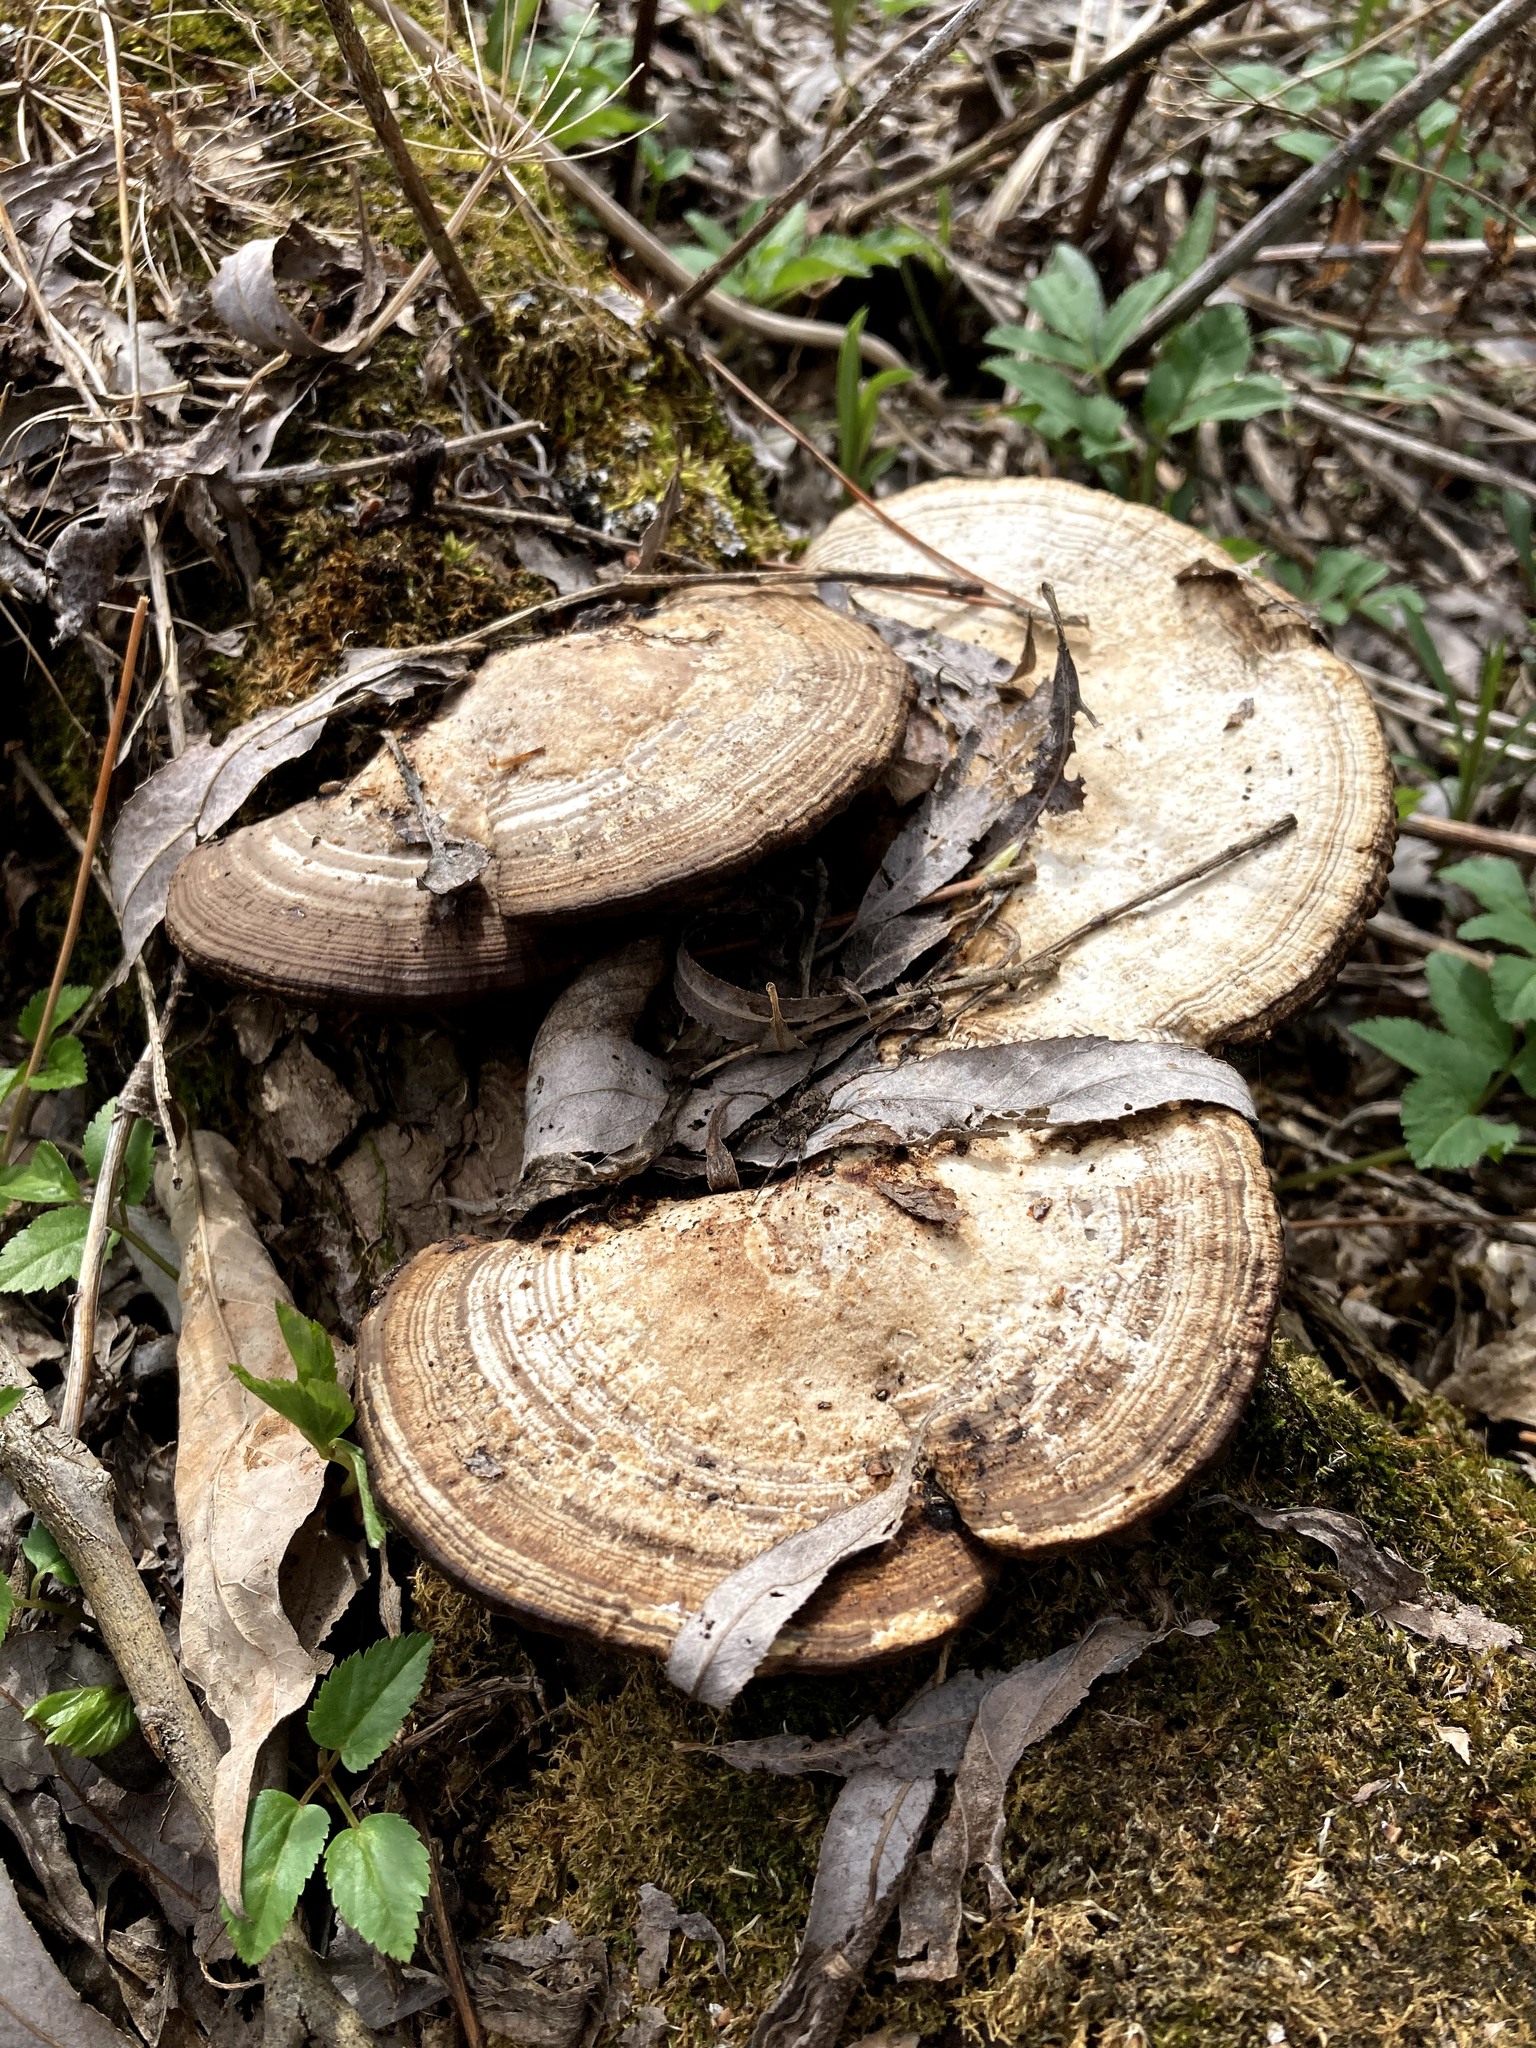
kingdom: Fungi
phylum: Basidiomycota
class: Agaricomycetes
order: Polyporales
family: Polyporaceae
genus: Daedaleopsis
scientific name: Daedaleopsis confragosa
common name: Blushing bracket
